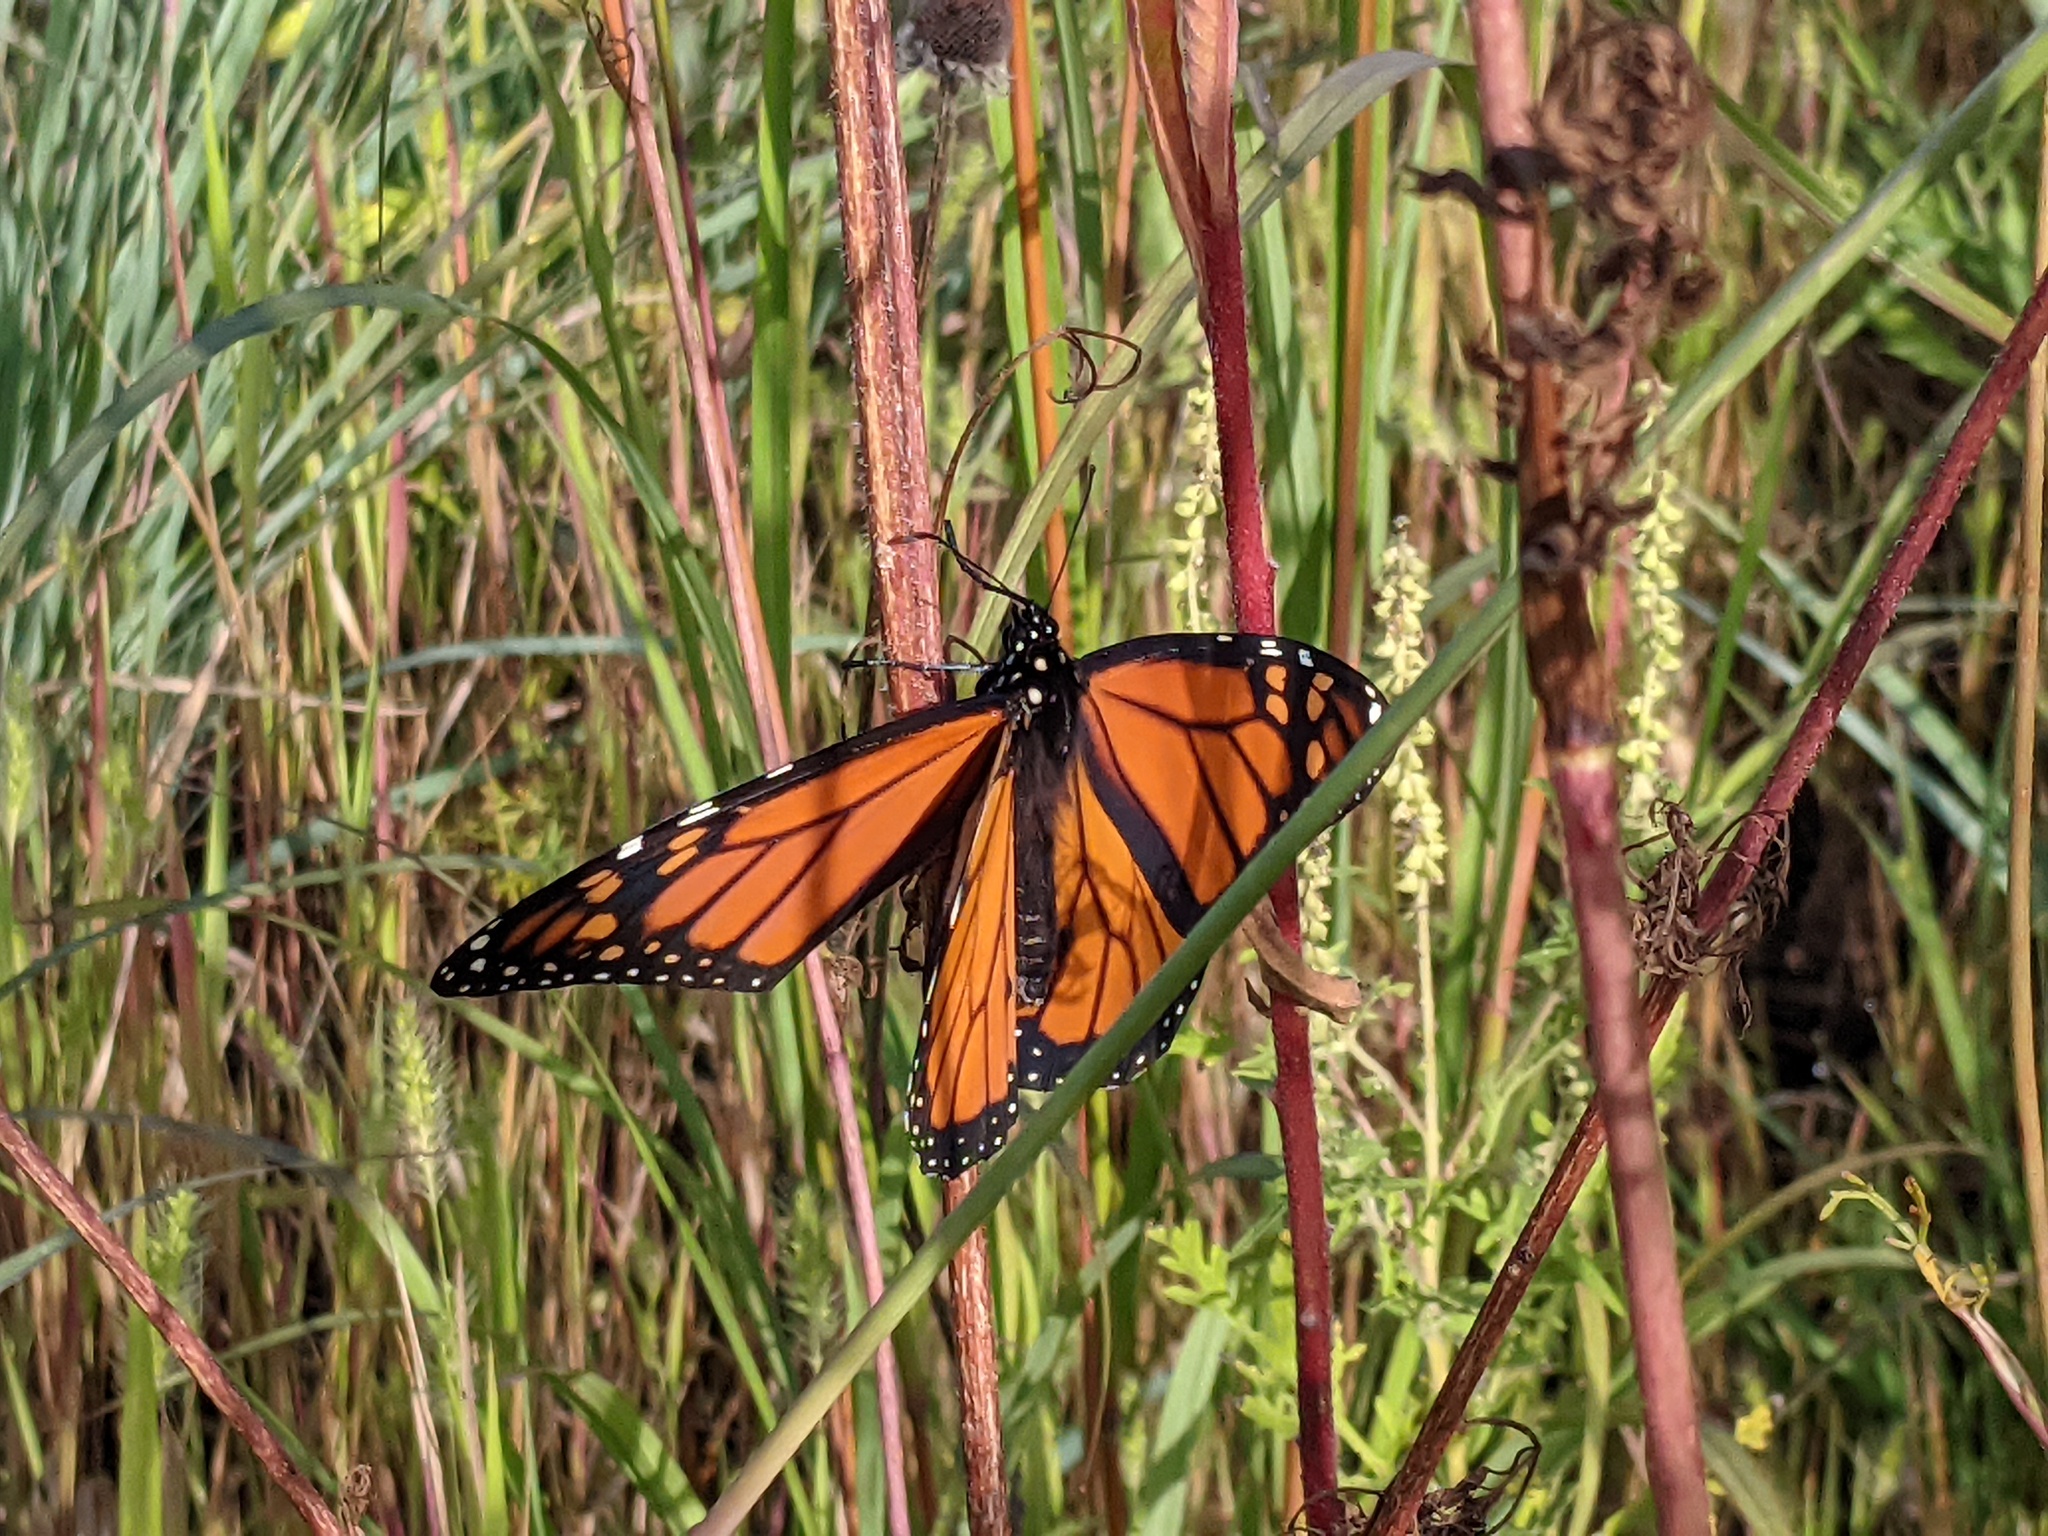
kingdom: Animalia
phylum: Arthropoda
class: Insecta
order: Lepidoptera
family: Nymphalidae
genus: Danaus
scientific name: Danaus plexippus
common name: Monarch
